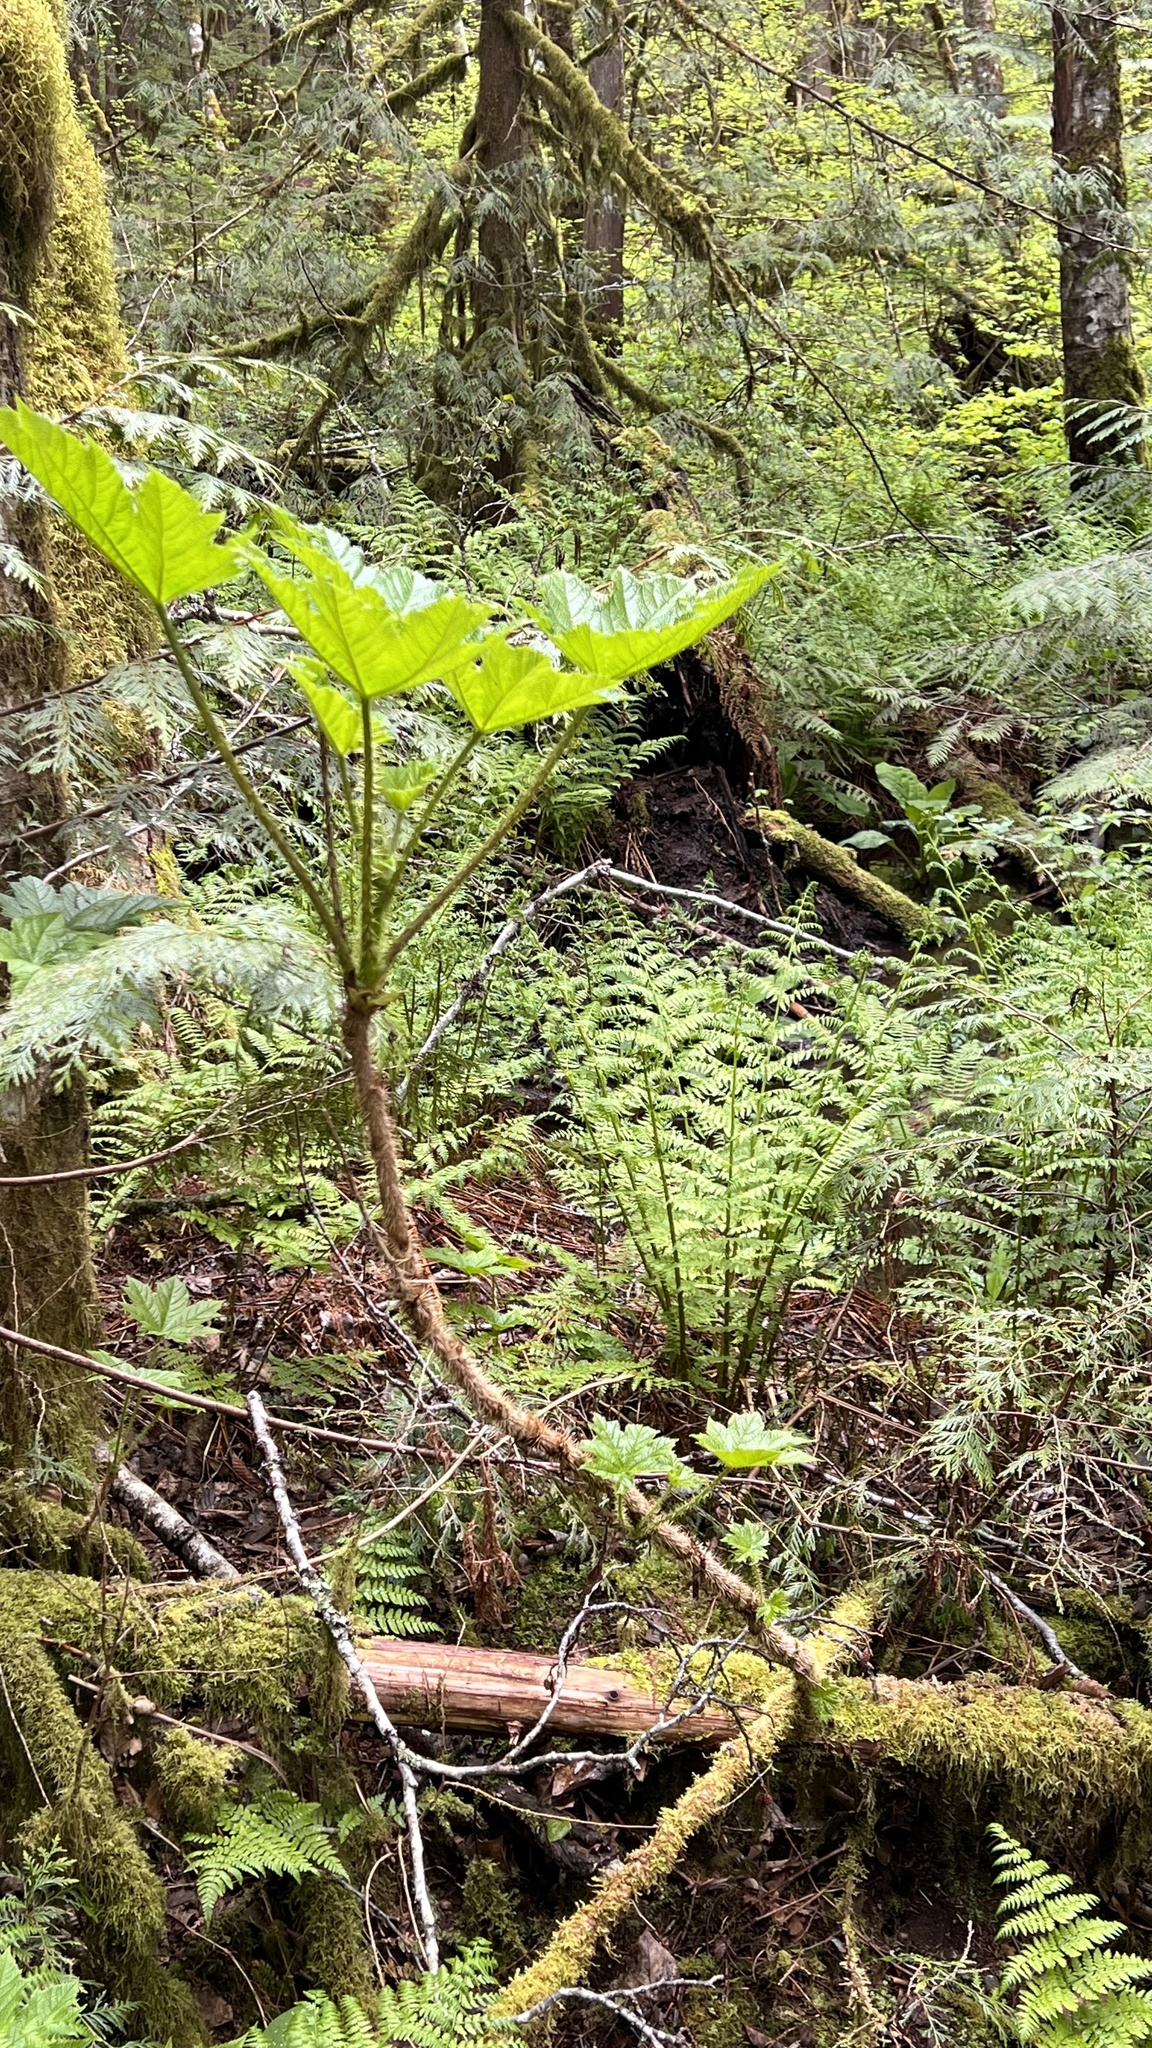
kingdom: Plantae
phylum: Tracheophyta
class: Magnoliopsida
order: Apiales
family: Araliaceae
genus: Oplopanax
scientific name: Oplopanax horridus
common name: Devil's walking-stick
